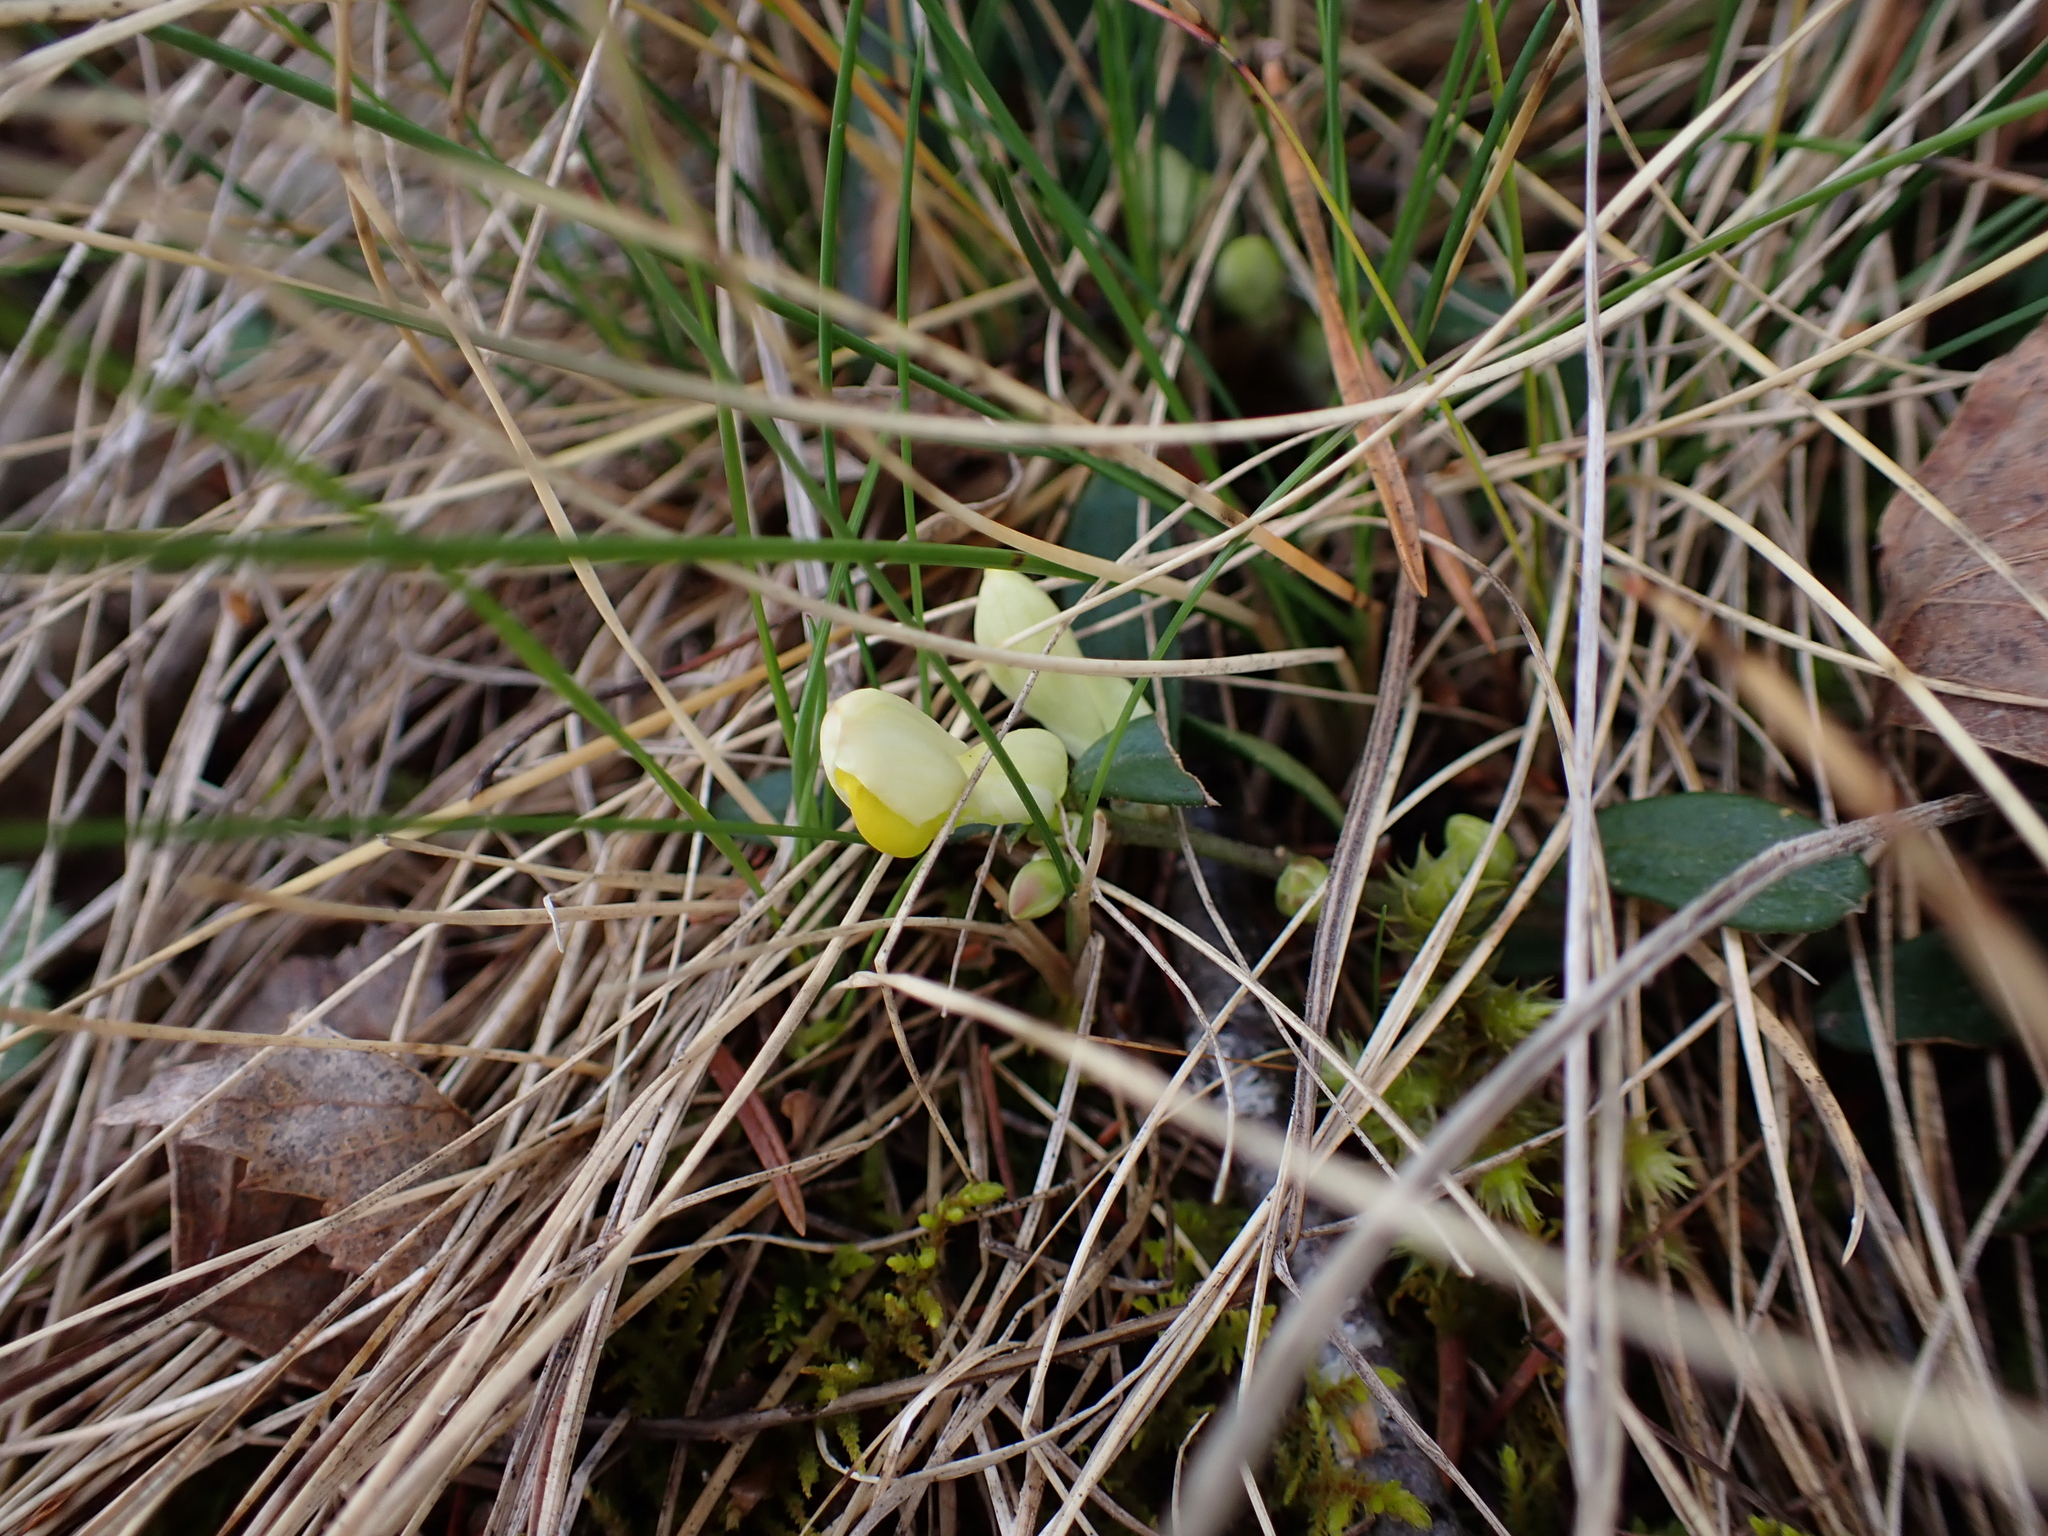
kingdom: Plantae
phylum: Tracheophyta
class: Magnoliopsida
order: Fabales
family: Polygalaceae
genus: Polygaloides
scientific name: Polygaloides chamaebuxus
